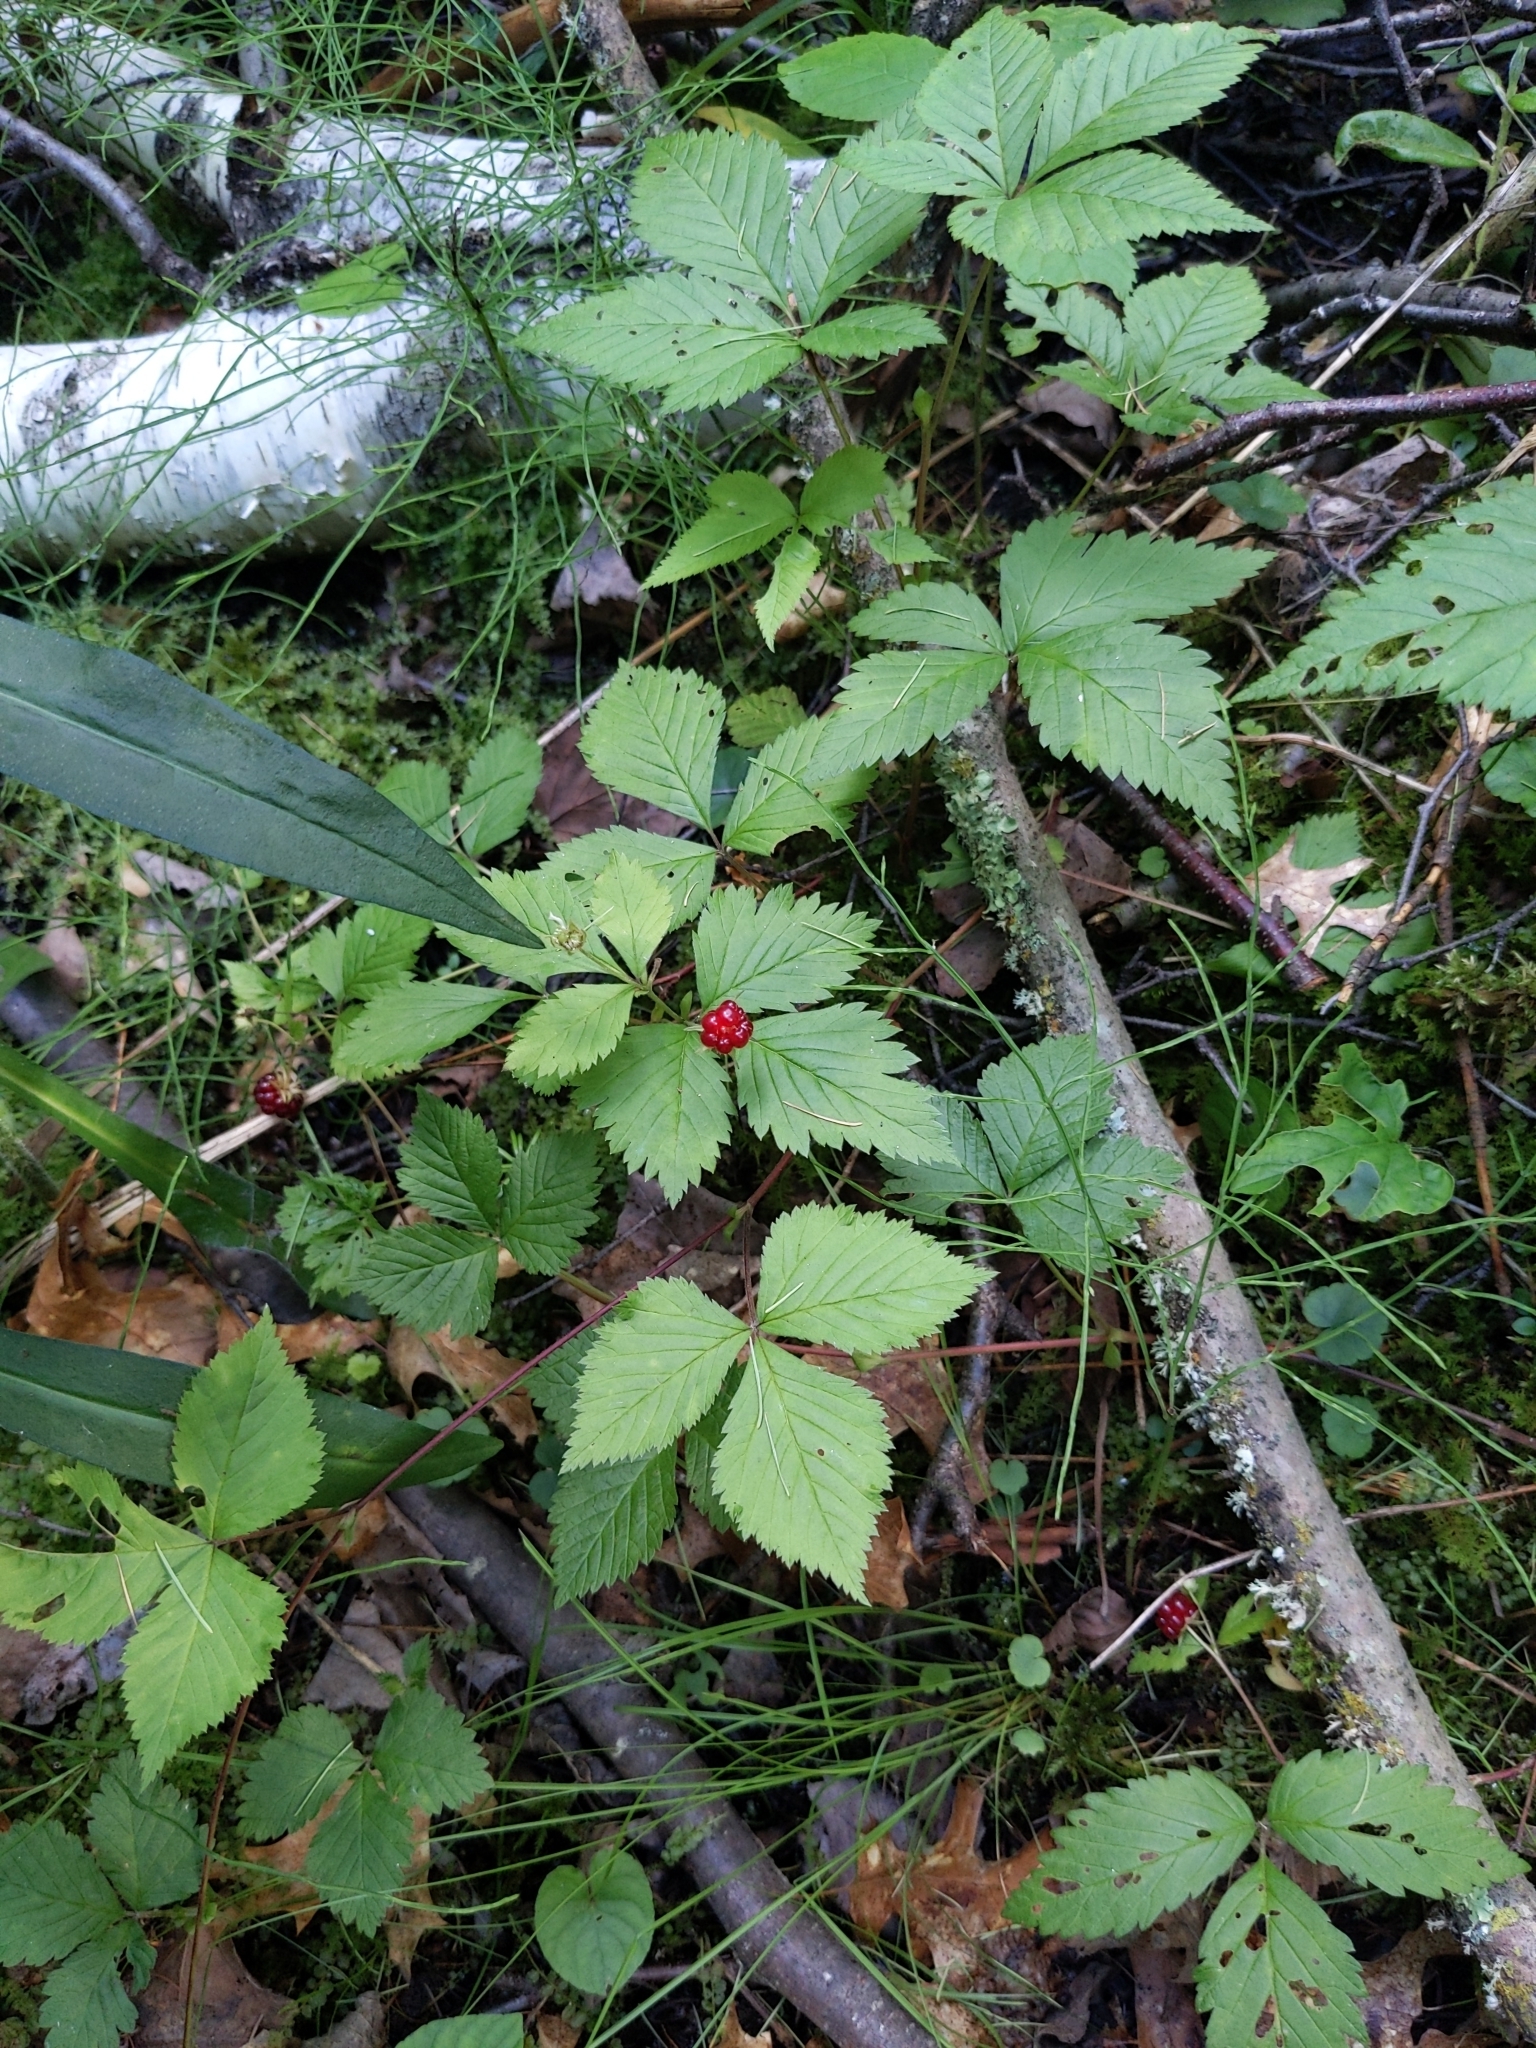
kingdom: Plantae
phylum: Tracheophyta
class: Magnoliopsida
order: Rosales
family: Rosaceae
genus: Rubus
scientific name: Rubus pubescens
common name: Dwarf raspberry
